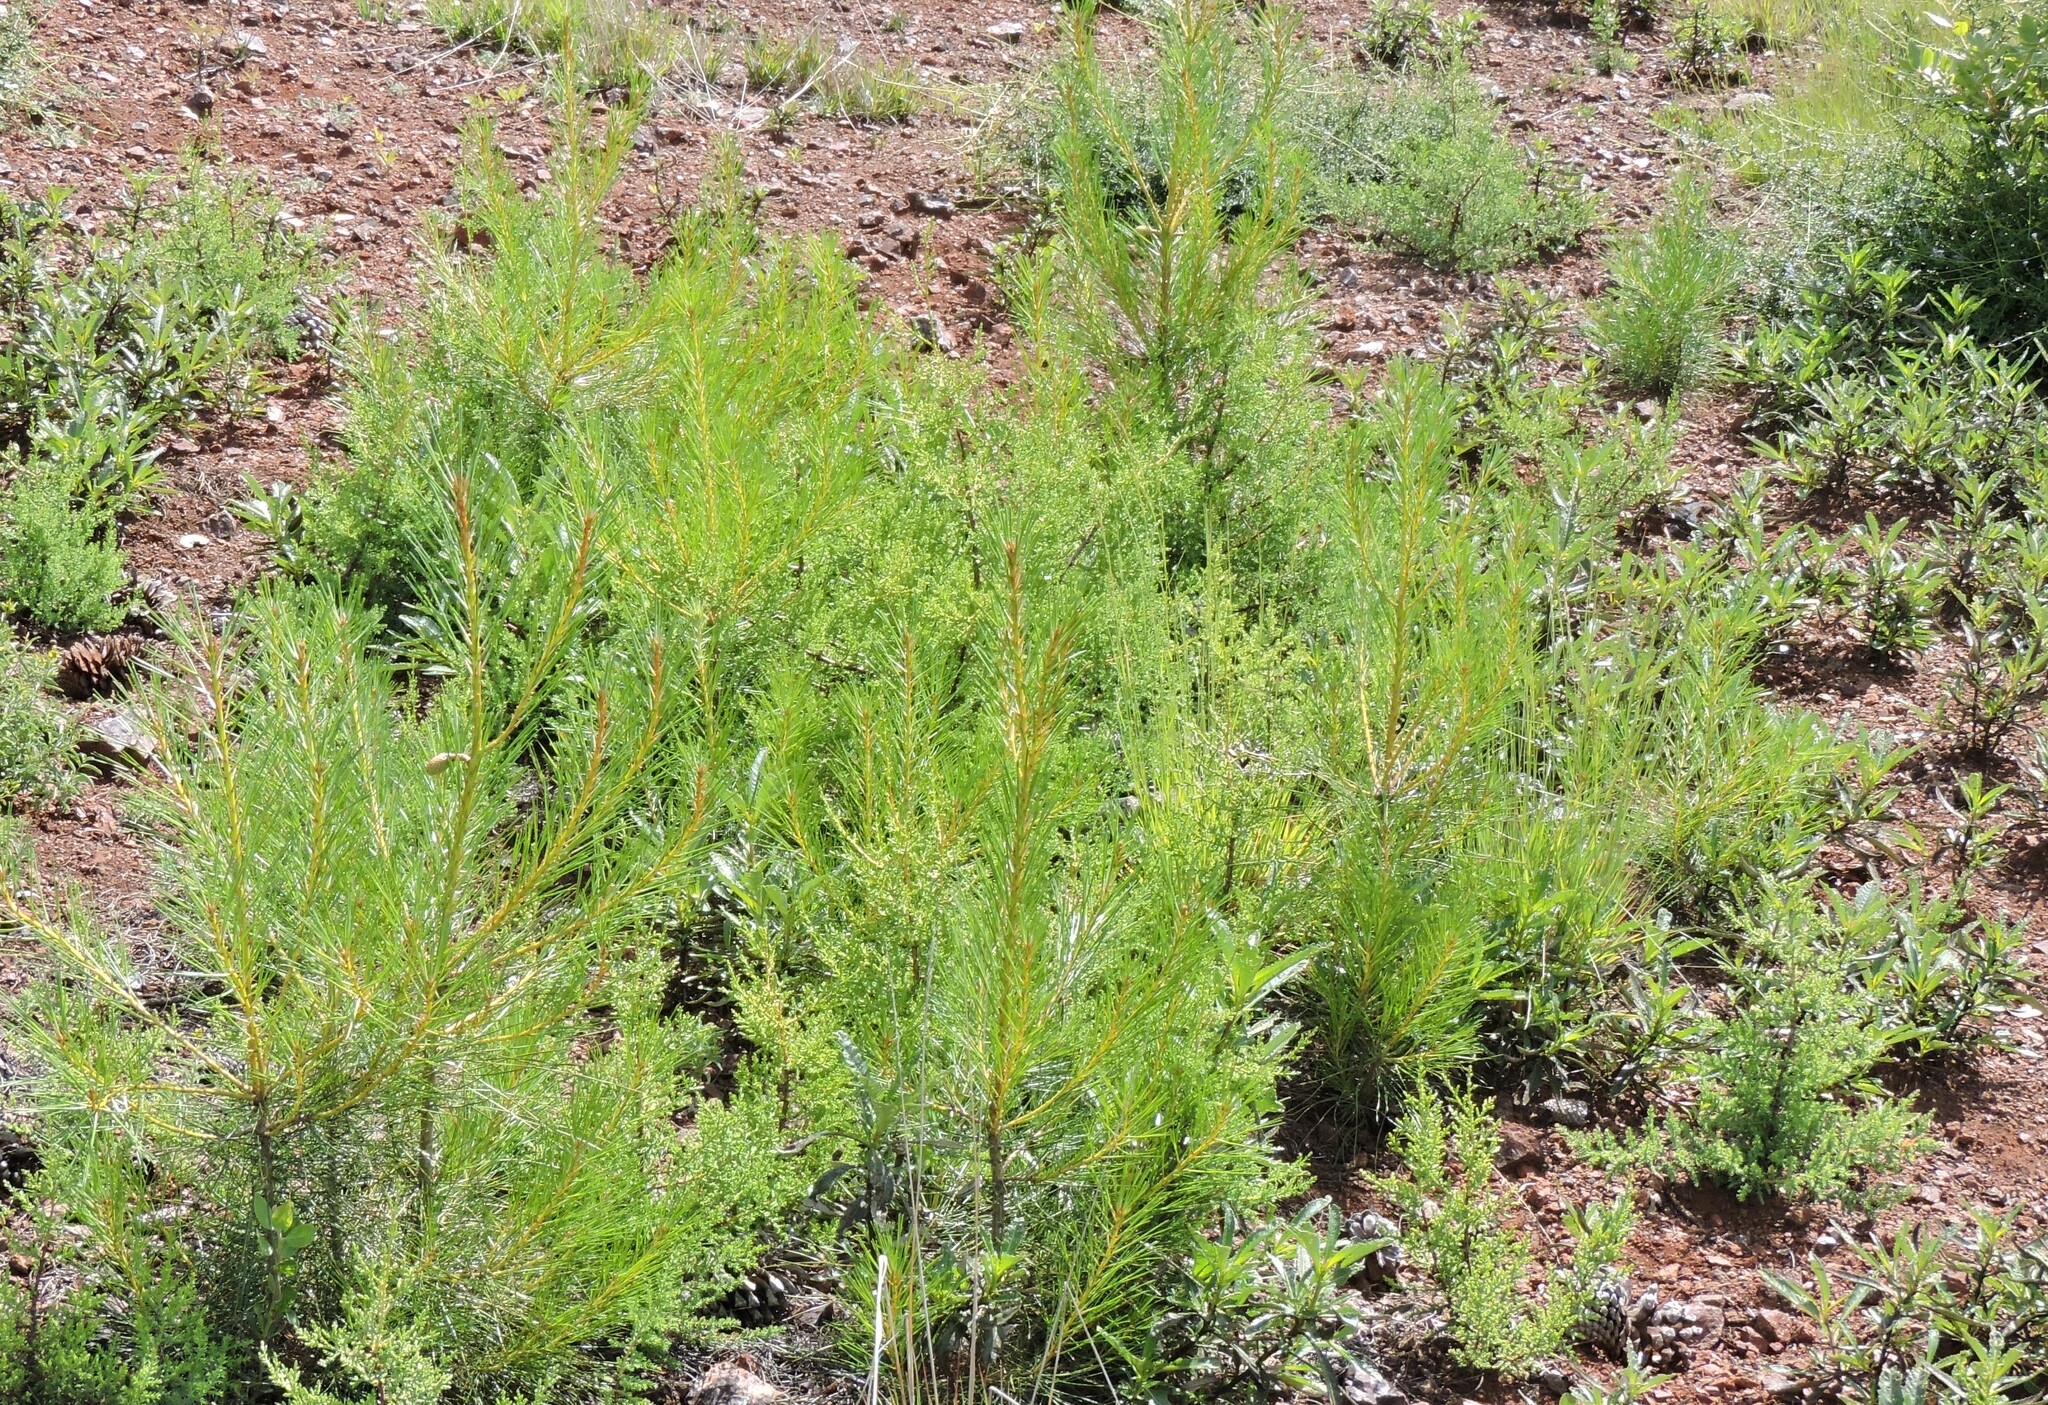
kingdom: Plantae
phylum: Tracheophyta
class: Pinopsida
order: Pinales
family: Pinaceae
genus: Pinus
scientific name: Pinus attenuata
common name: Knobcone pine
